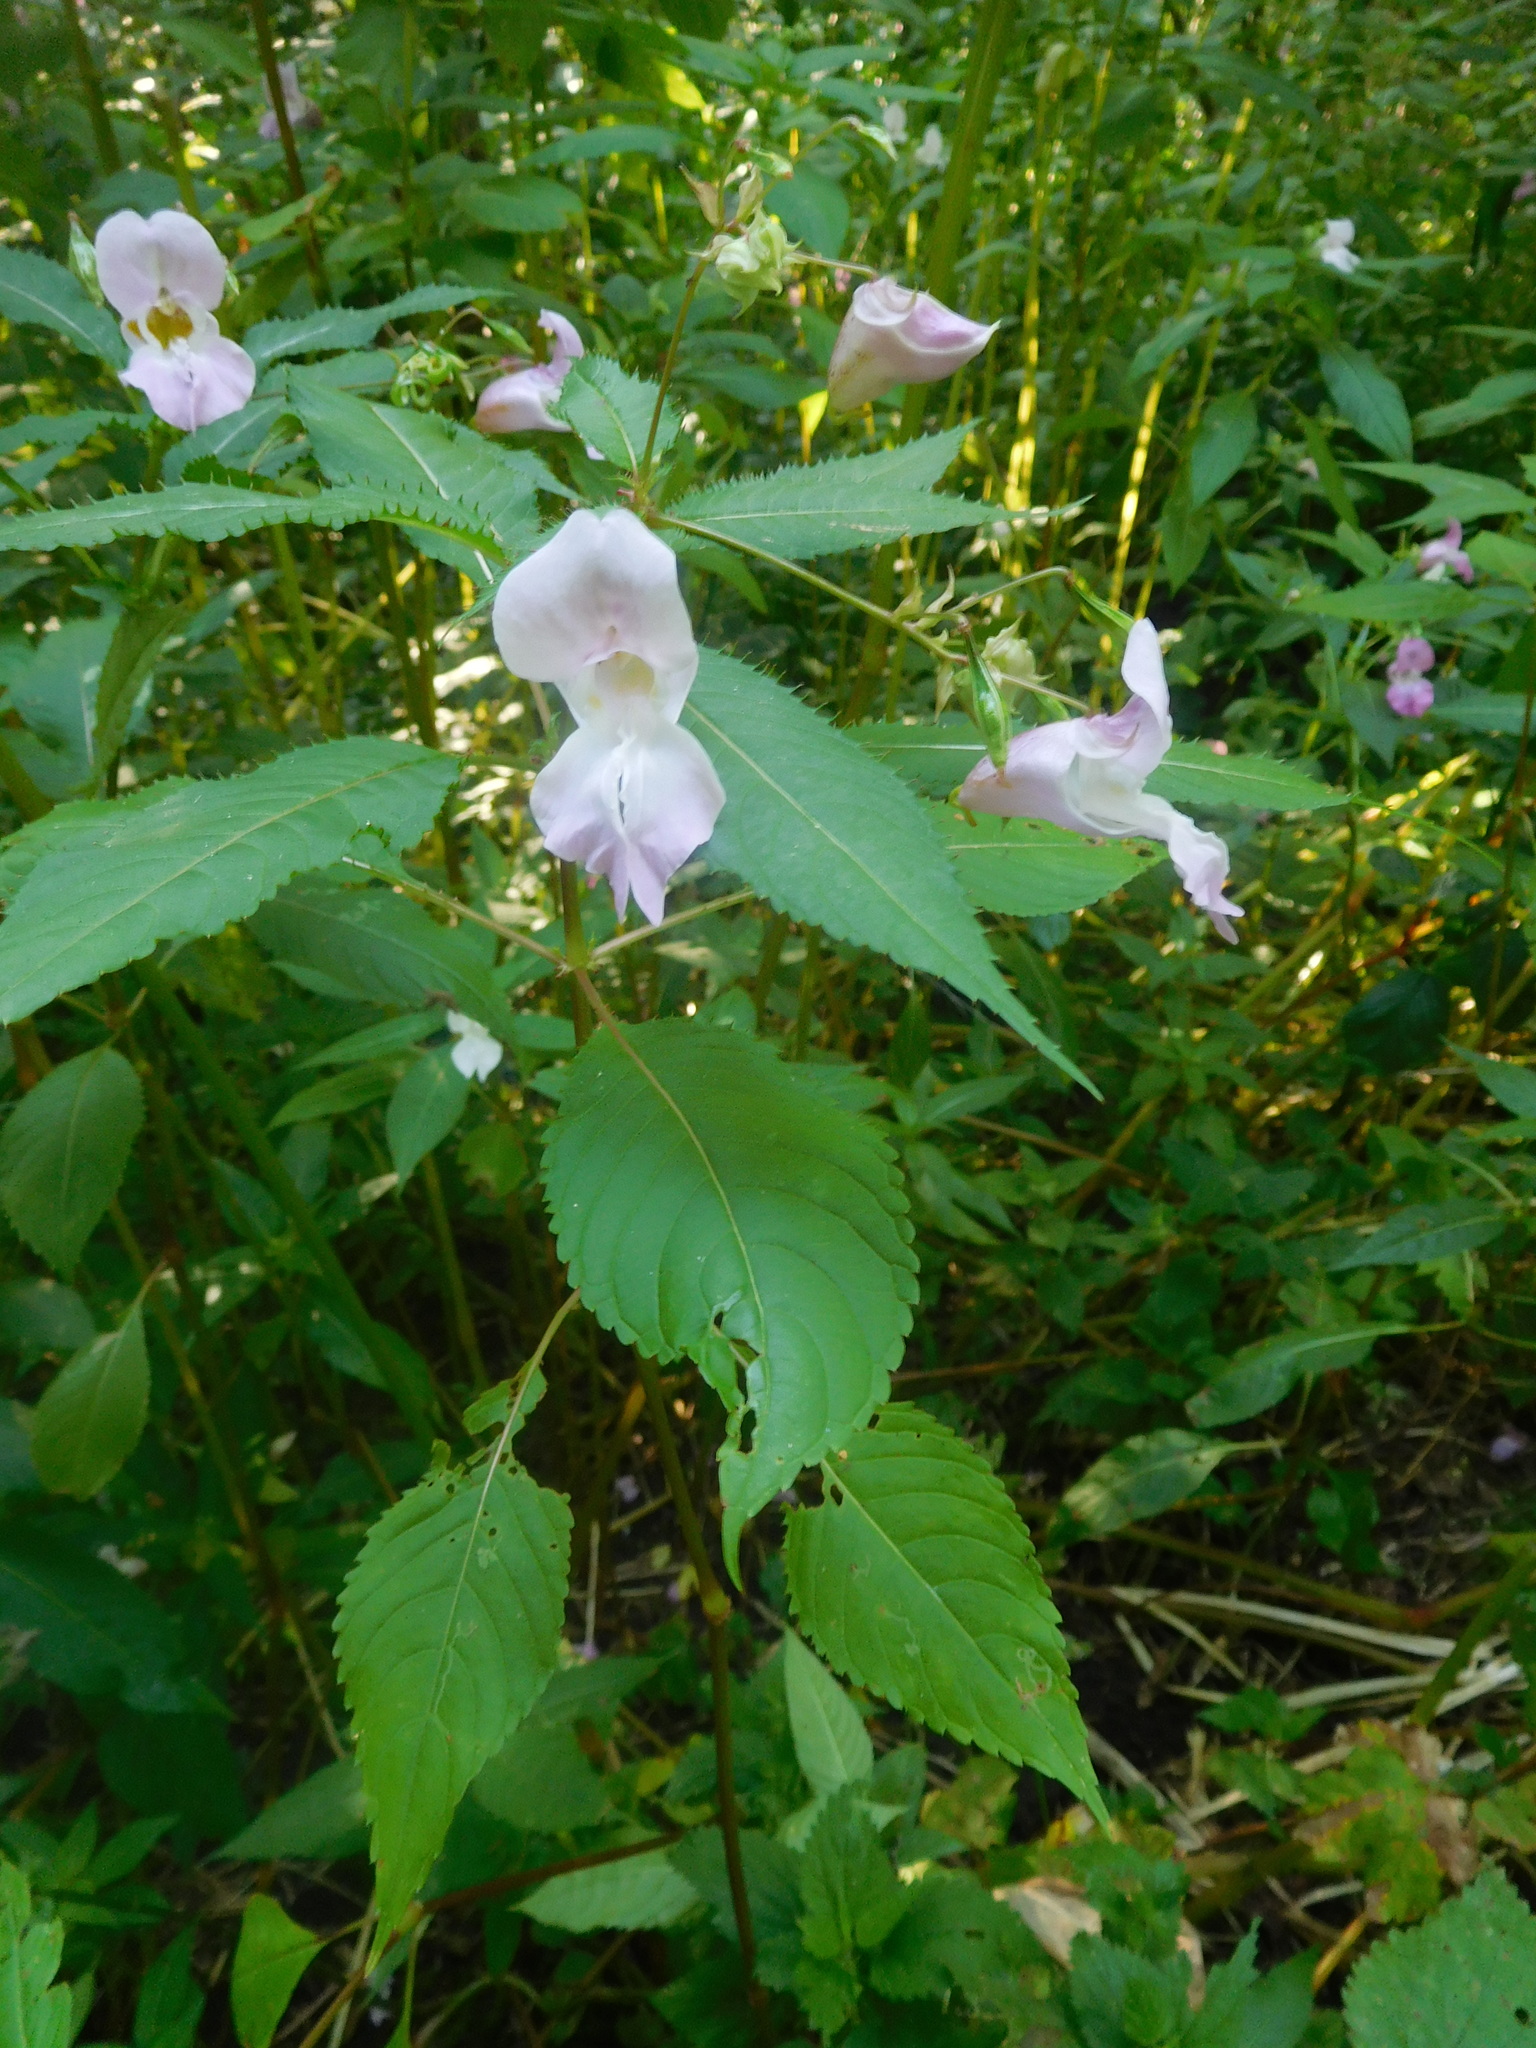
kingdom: Plantae
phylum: Tracheophyta
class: Magnoliopsida
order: Ericales
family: Balsaminaceae
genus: Impatiens
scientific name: Impatiens glandulifera
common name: Himalayan balsam
